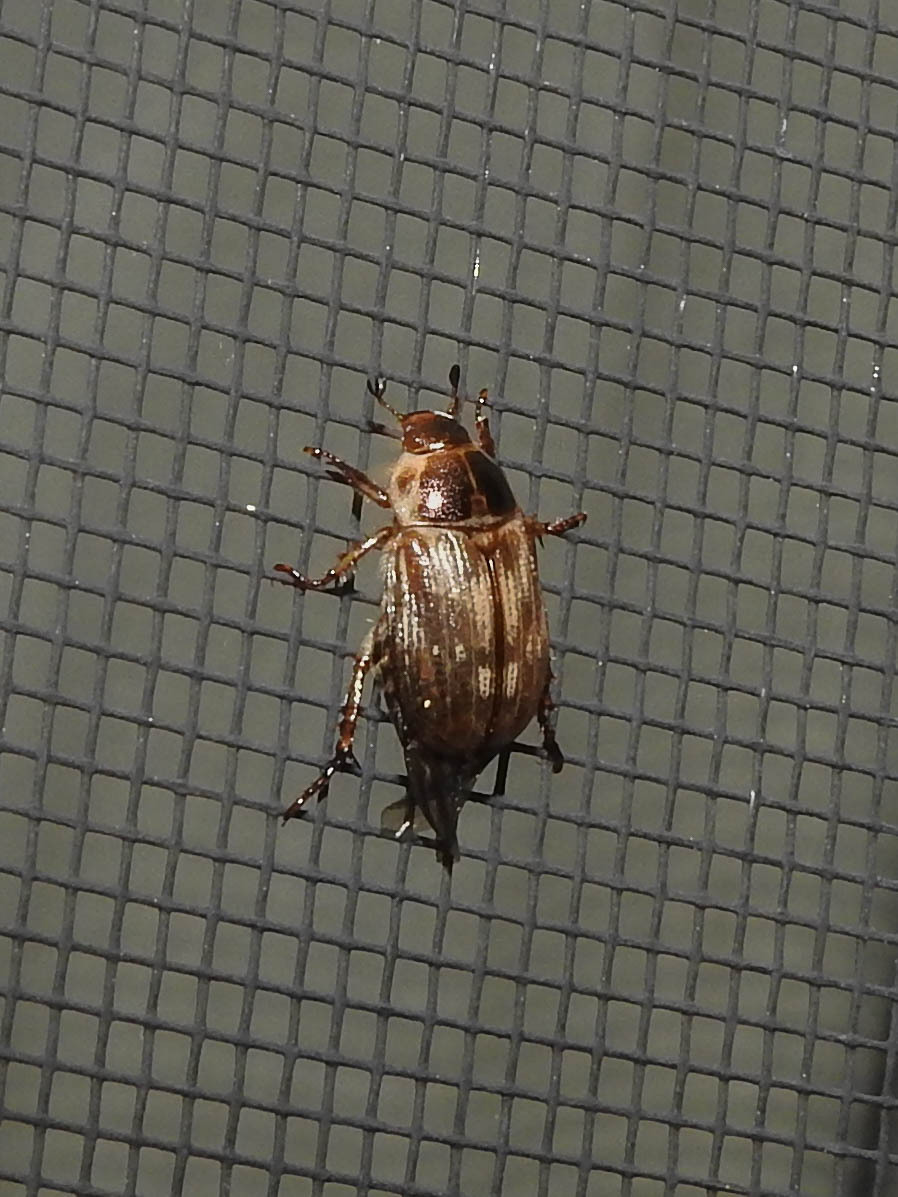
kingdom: Animalia
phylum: Arthropoda
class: Insecta
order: Coleoptera
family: Scarabaeidae
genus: Exomala
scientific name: Exomala orientalis
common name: Oriental beetle
